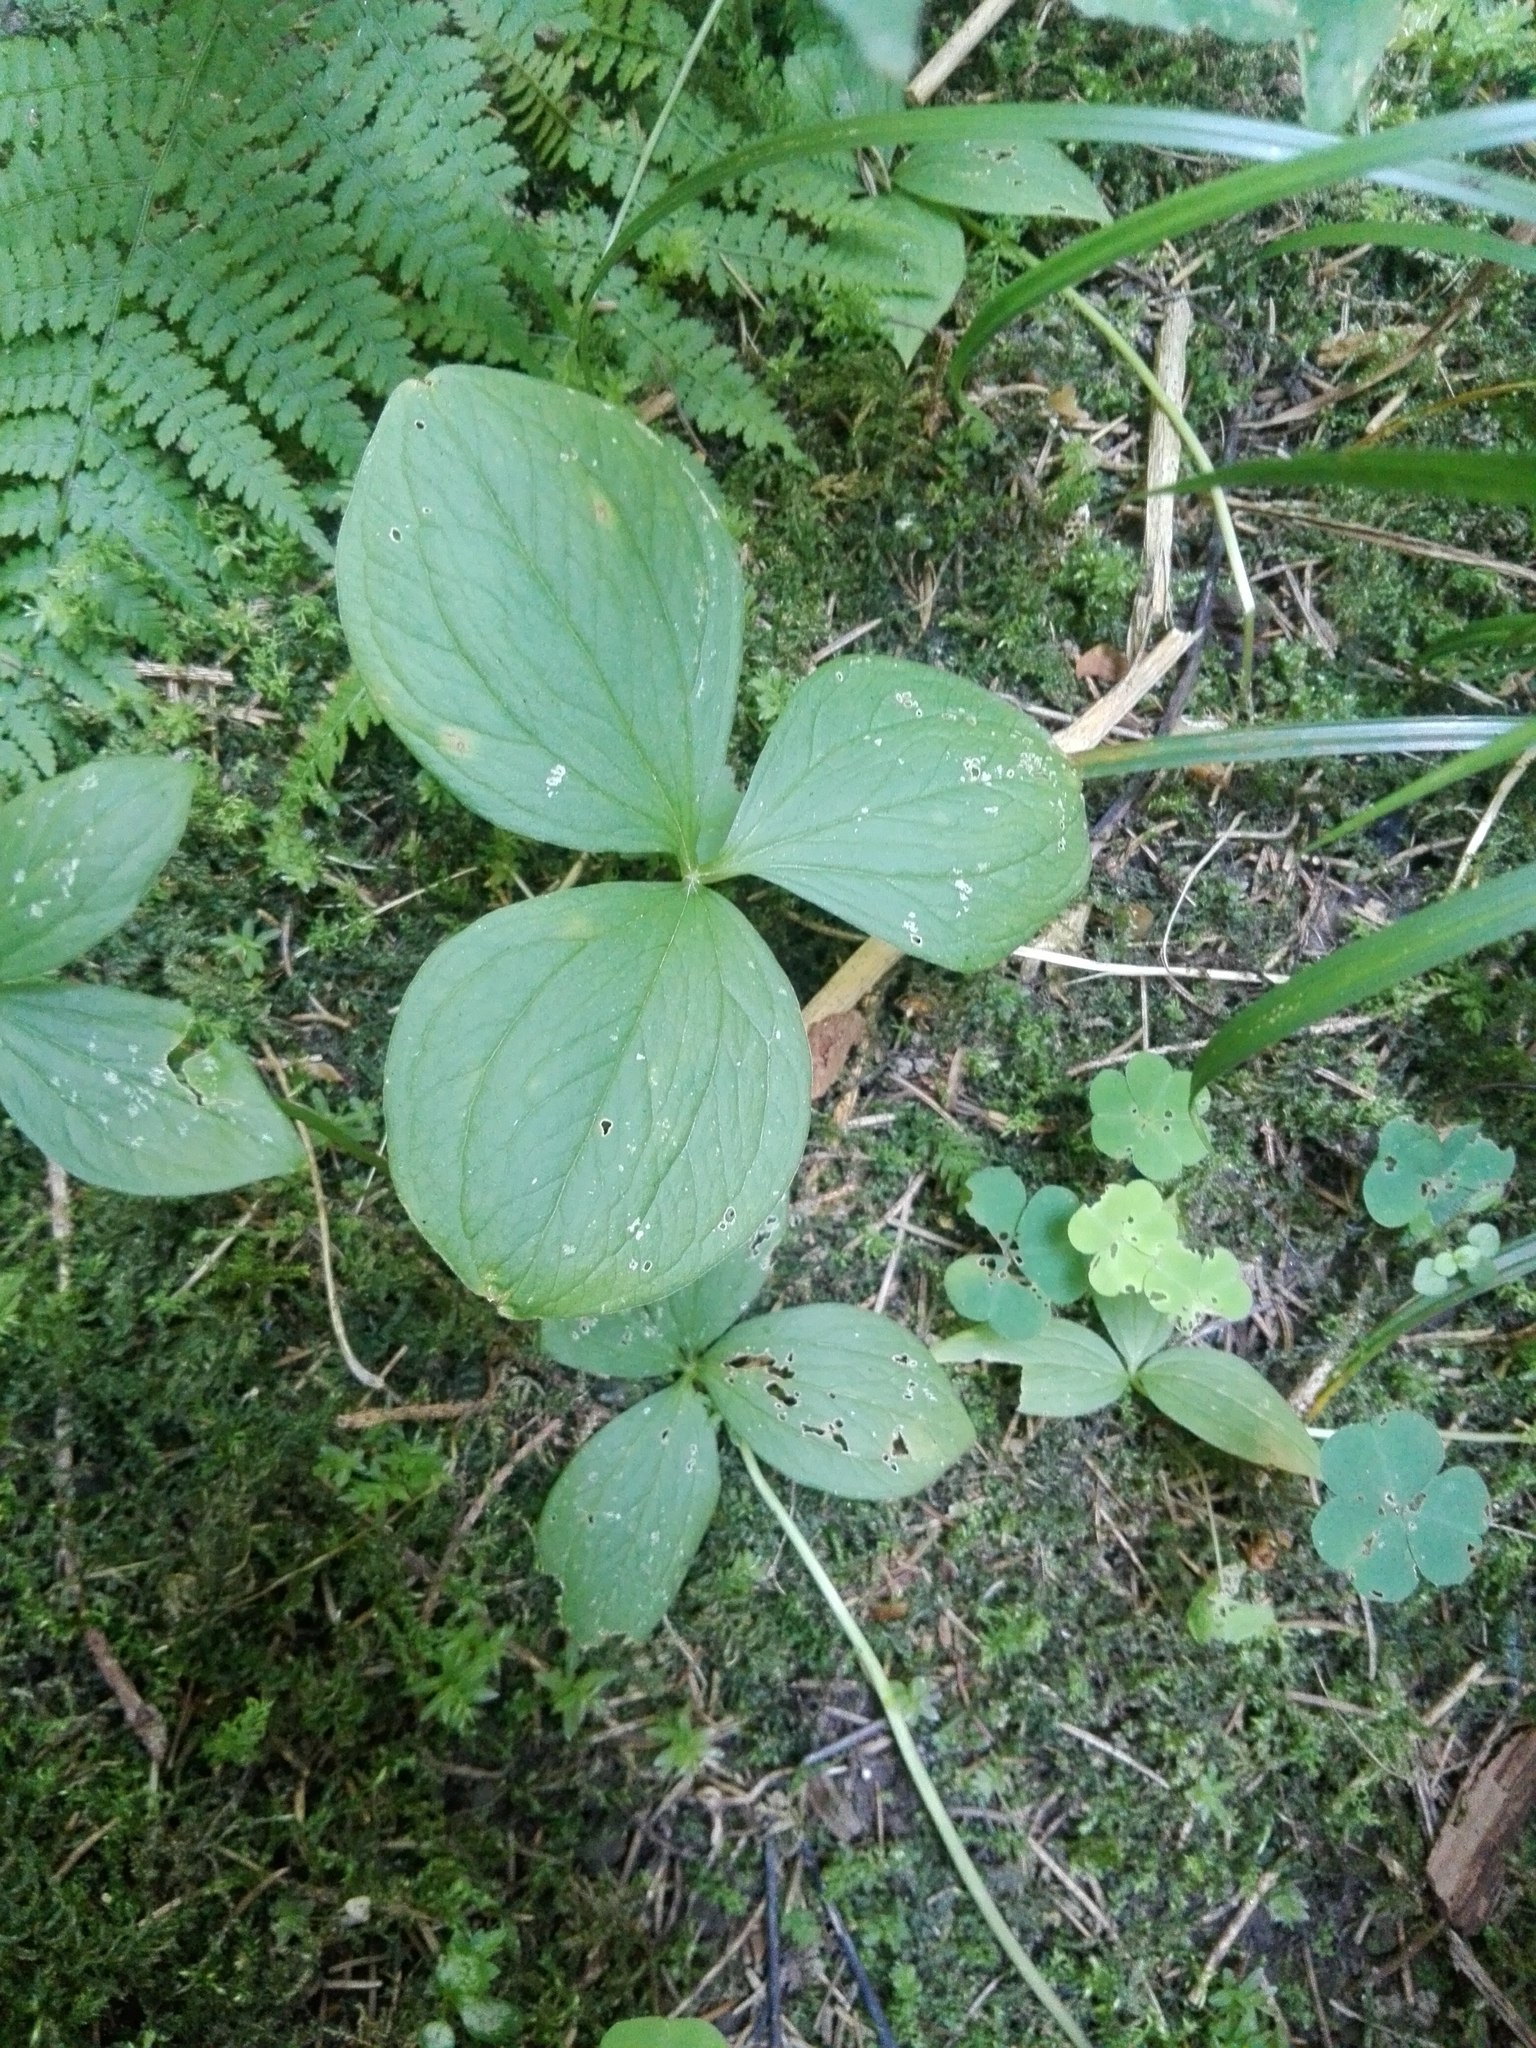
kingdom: Plantae
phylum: Tracheophyta
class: Liliopsida
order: Liliales
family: Melanthiaceae
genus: Paris
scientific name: Paris quadrifolia
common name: Herb-paris
